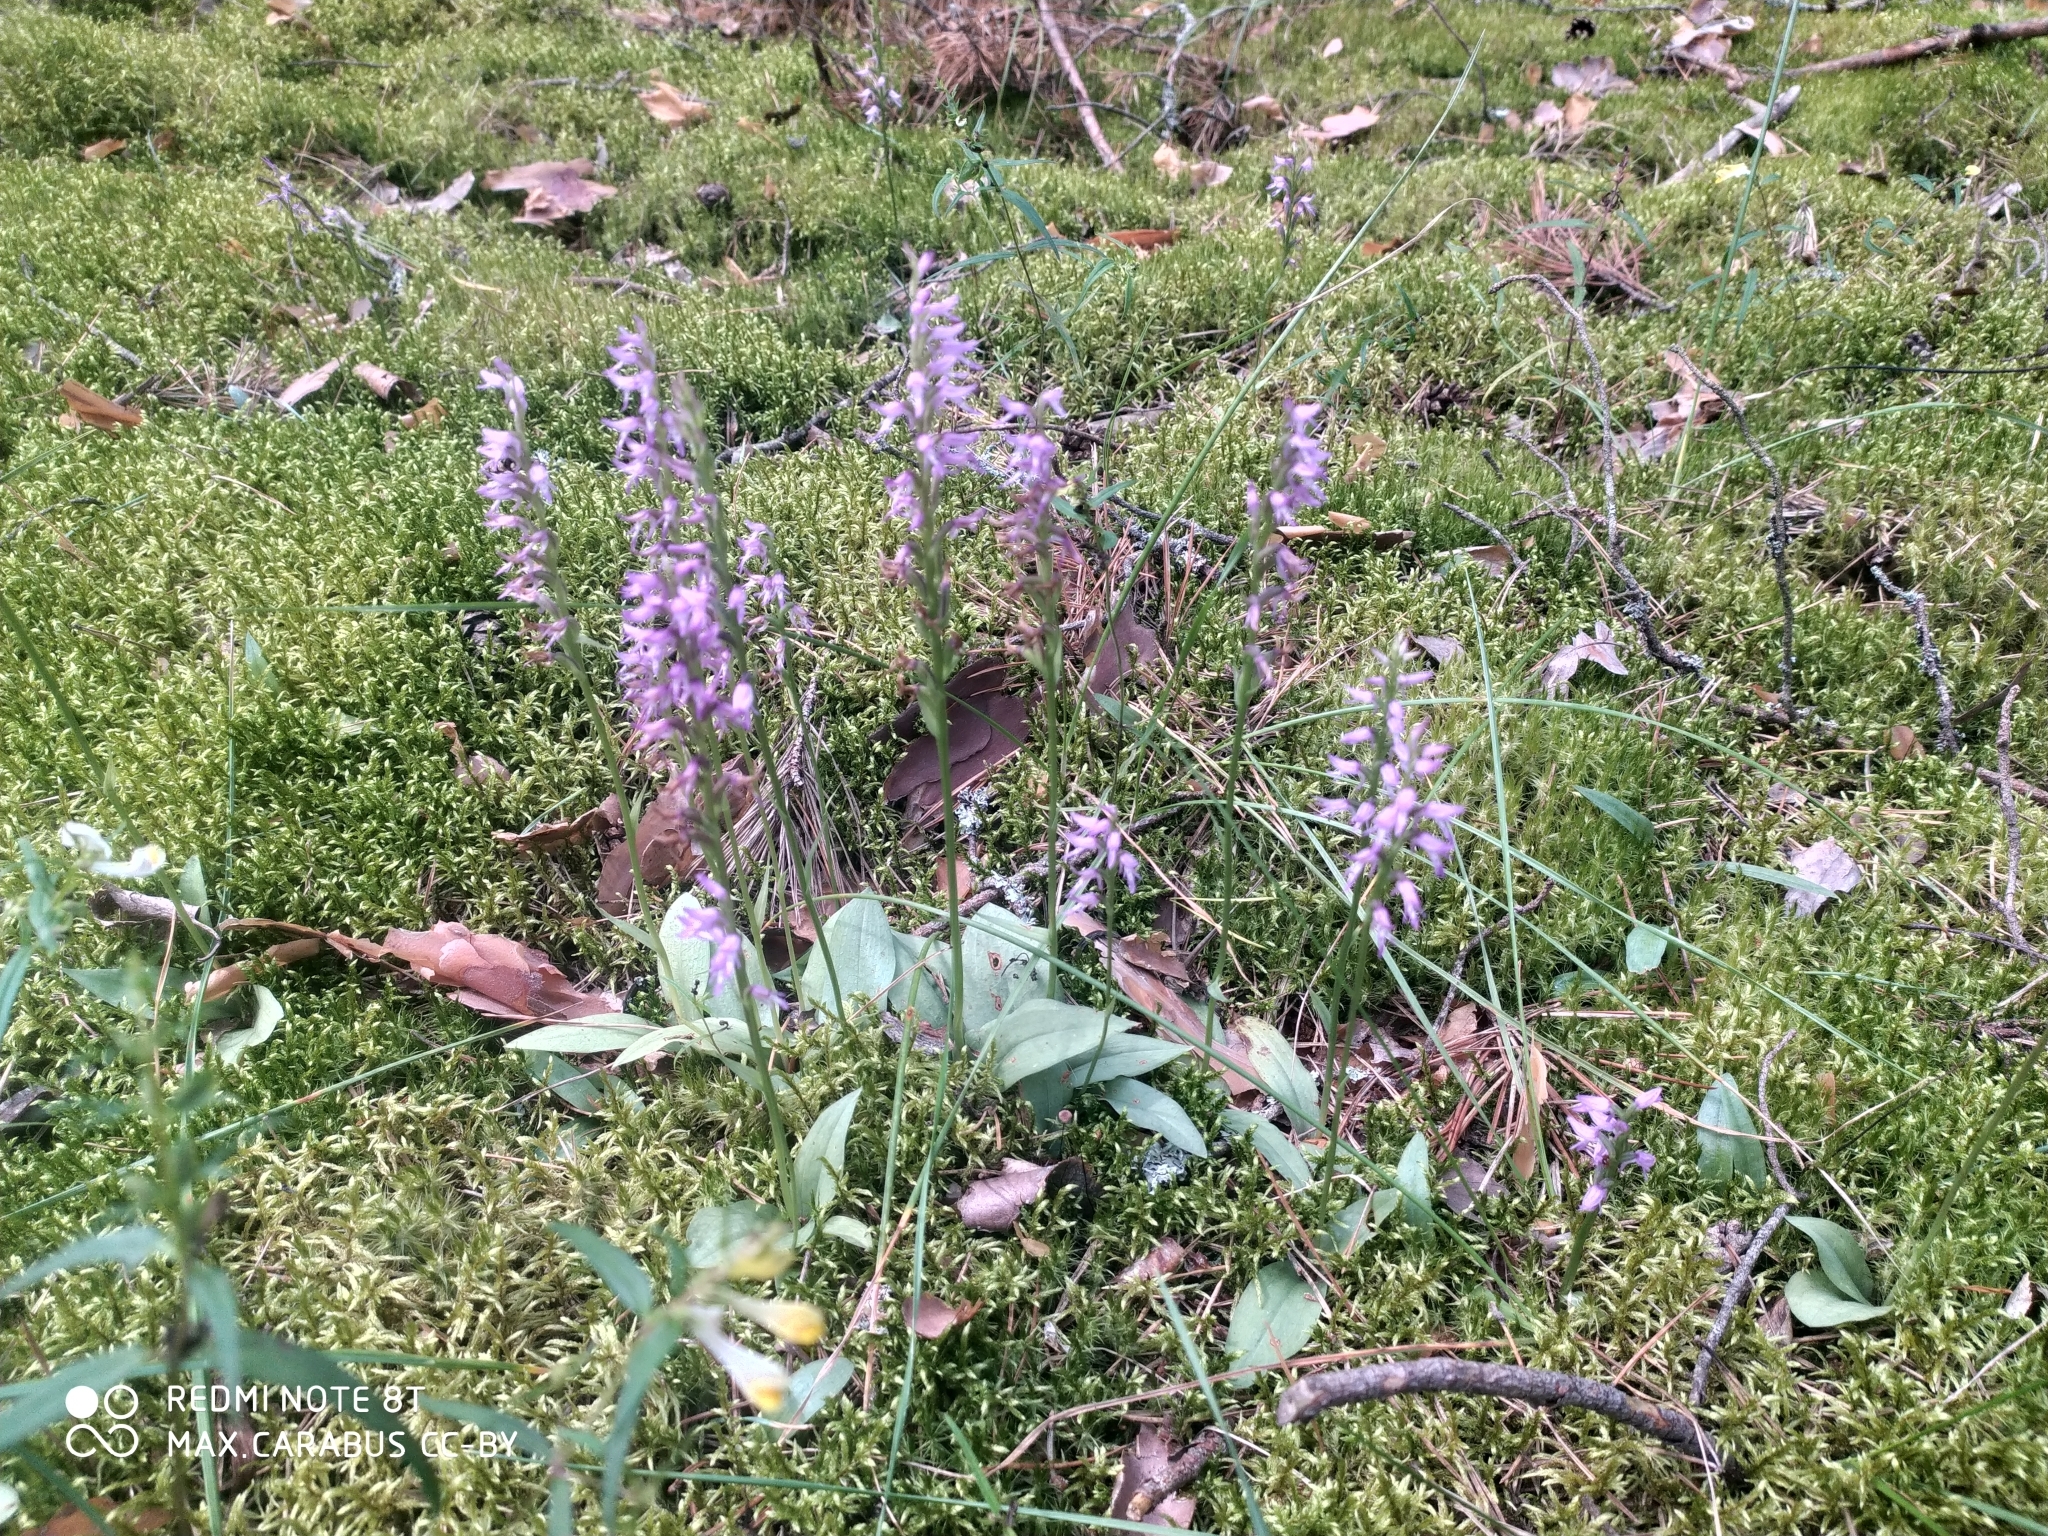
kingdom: Plantae
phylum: Tracheophyta
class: Liliopsida
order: Asparagales
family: Orchidaceae
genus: Hemipilia
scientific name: Hemipilia cucullata
